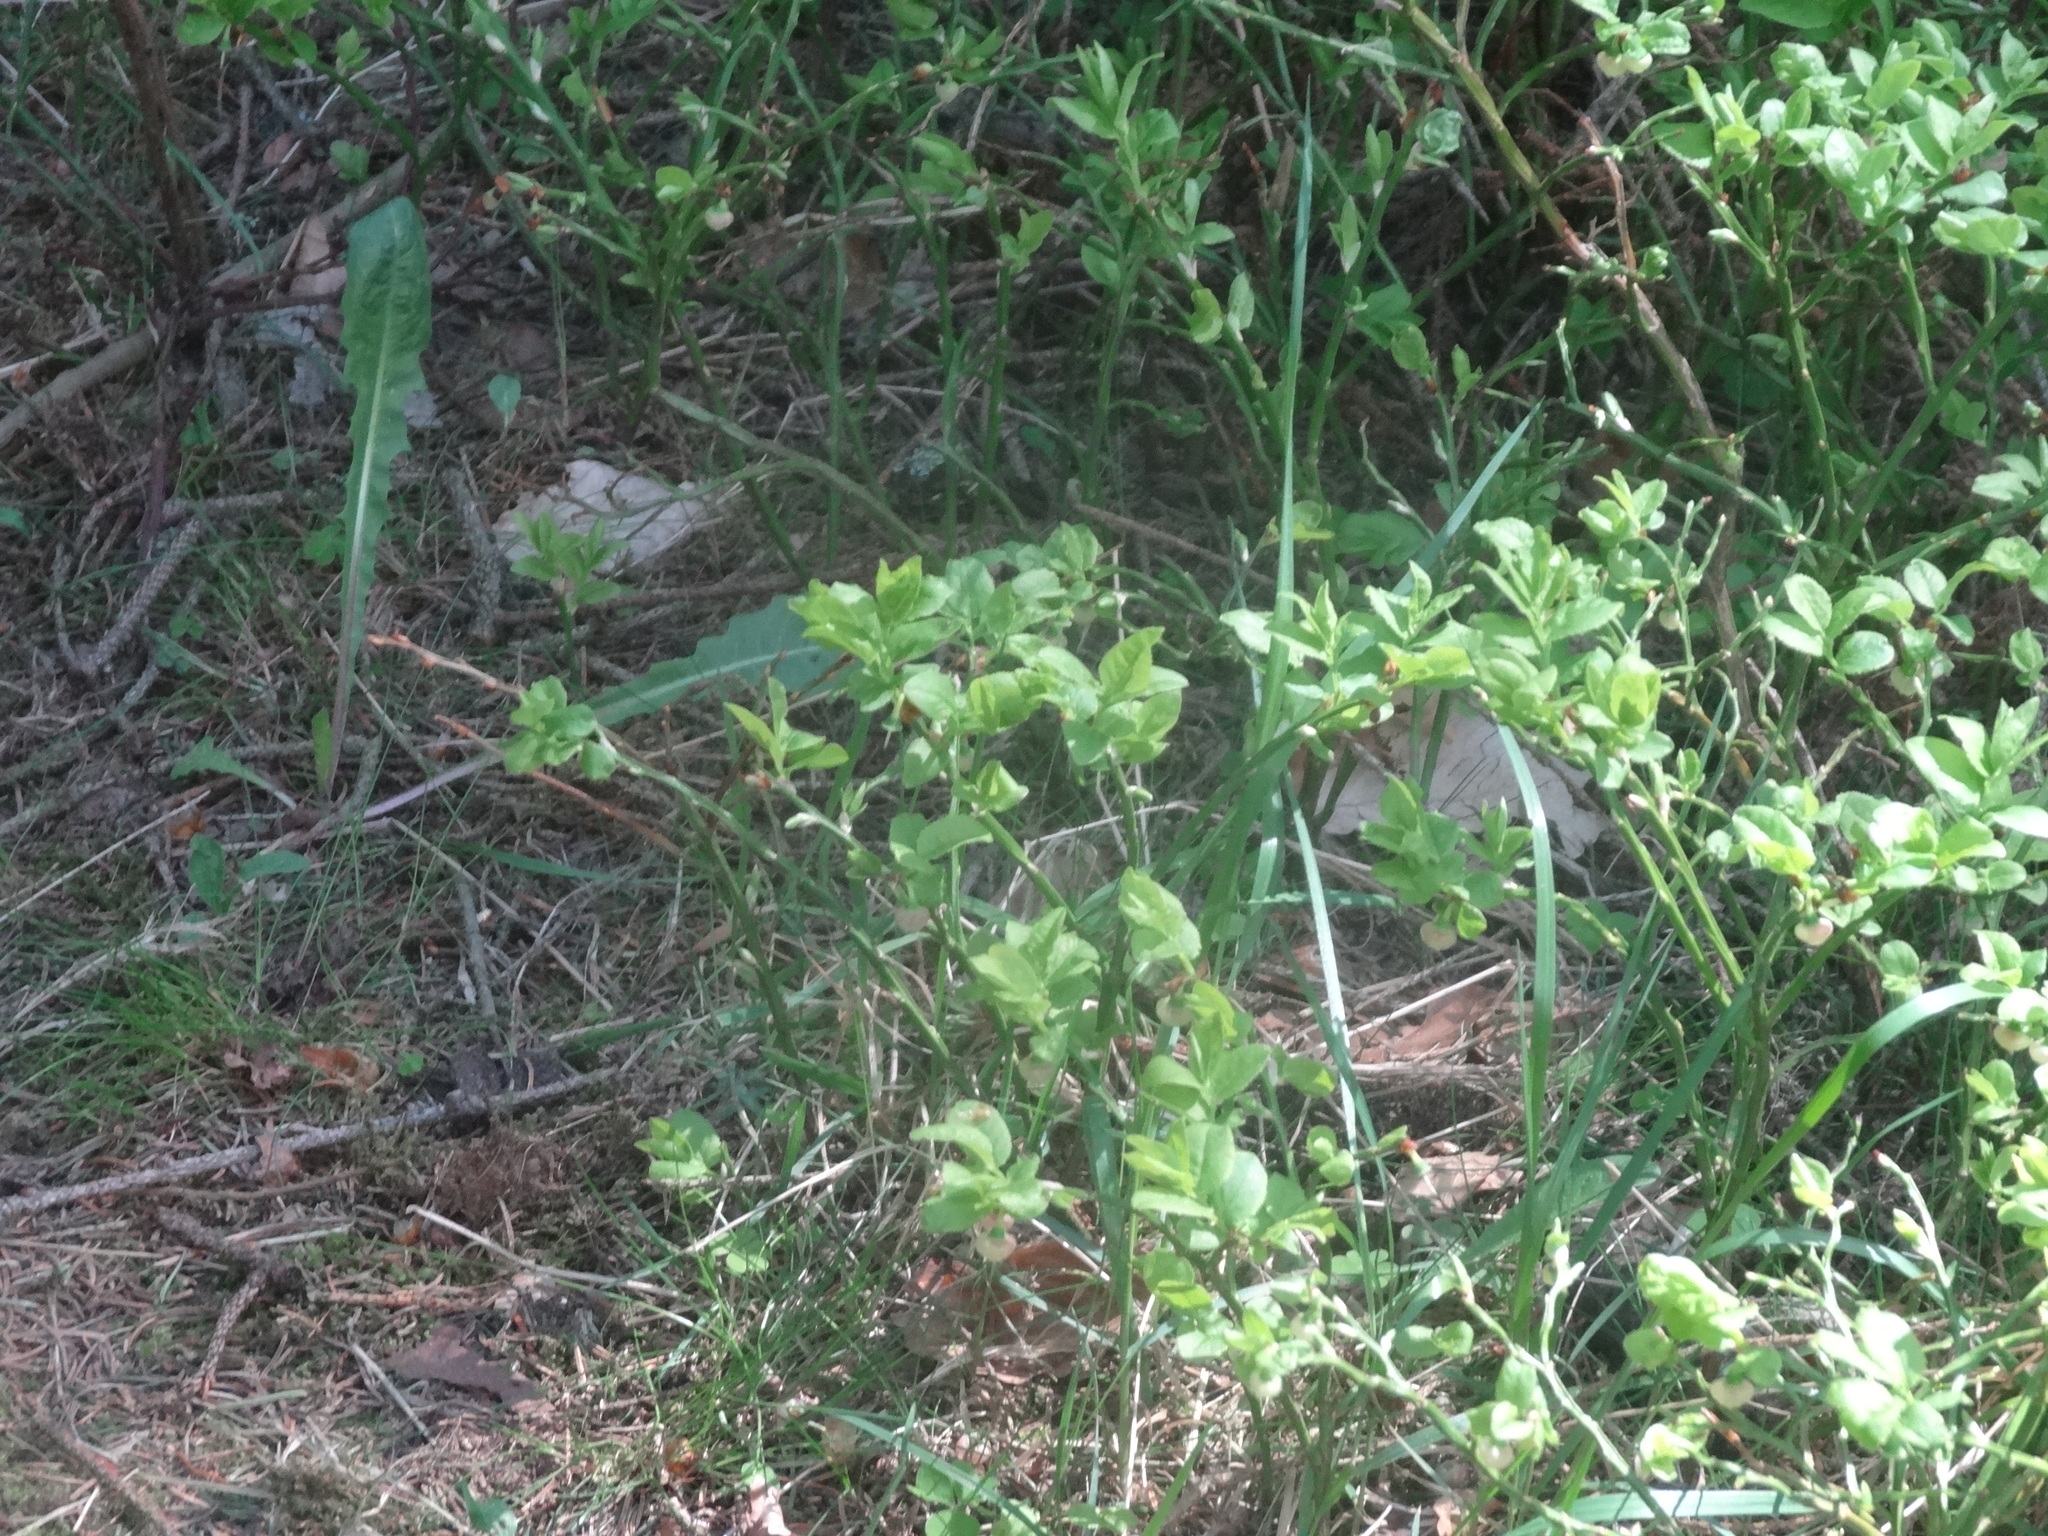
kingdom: Plantae
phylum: Tracheophyta
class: Magnoliopsida
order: Ericales
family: Ericaceae
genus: Vaccinium
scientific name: Vaccinium myrtillus
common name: Bilberry
